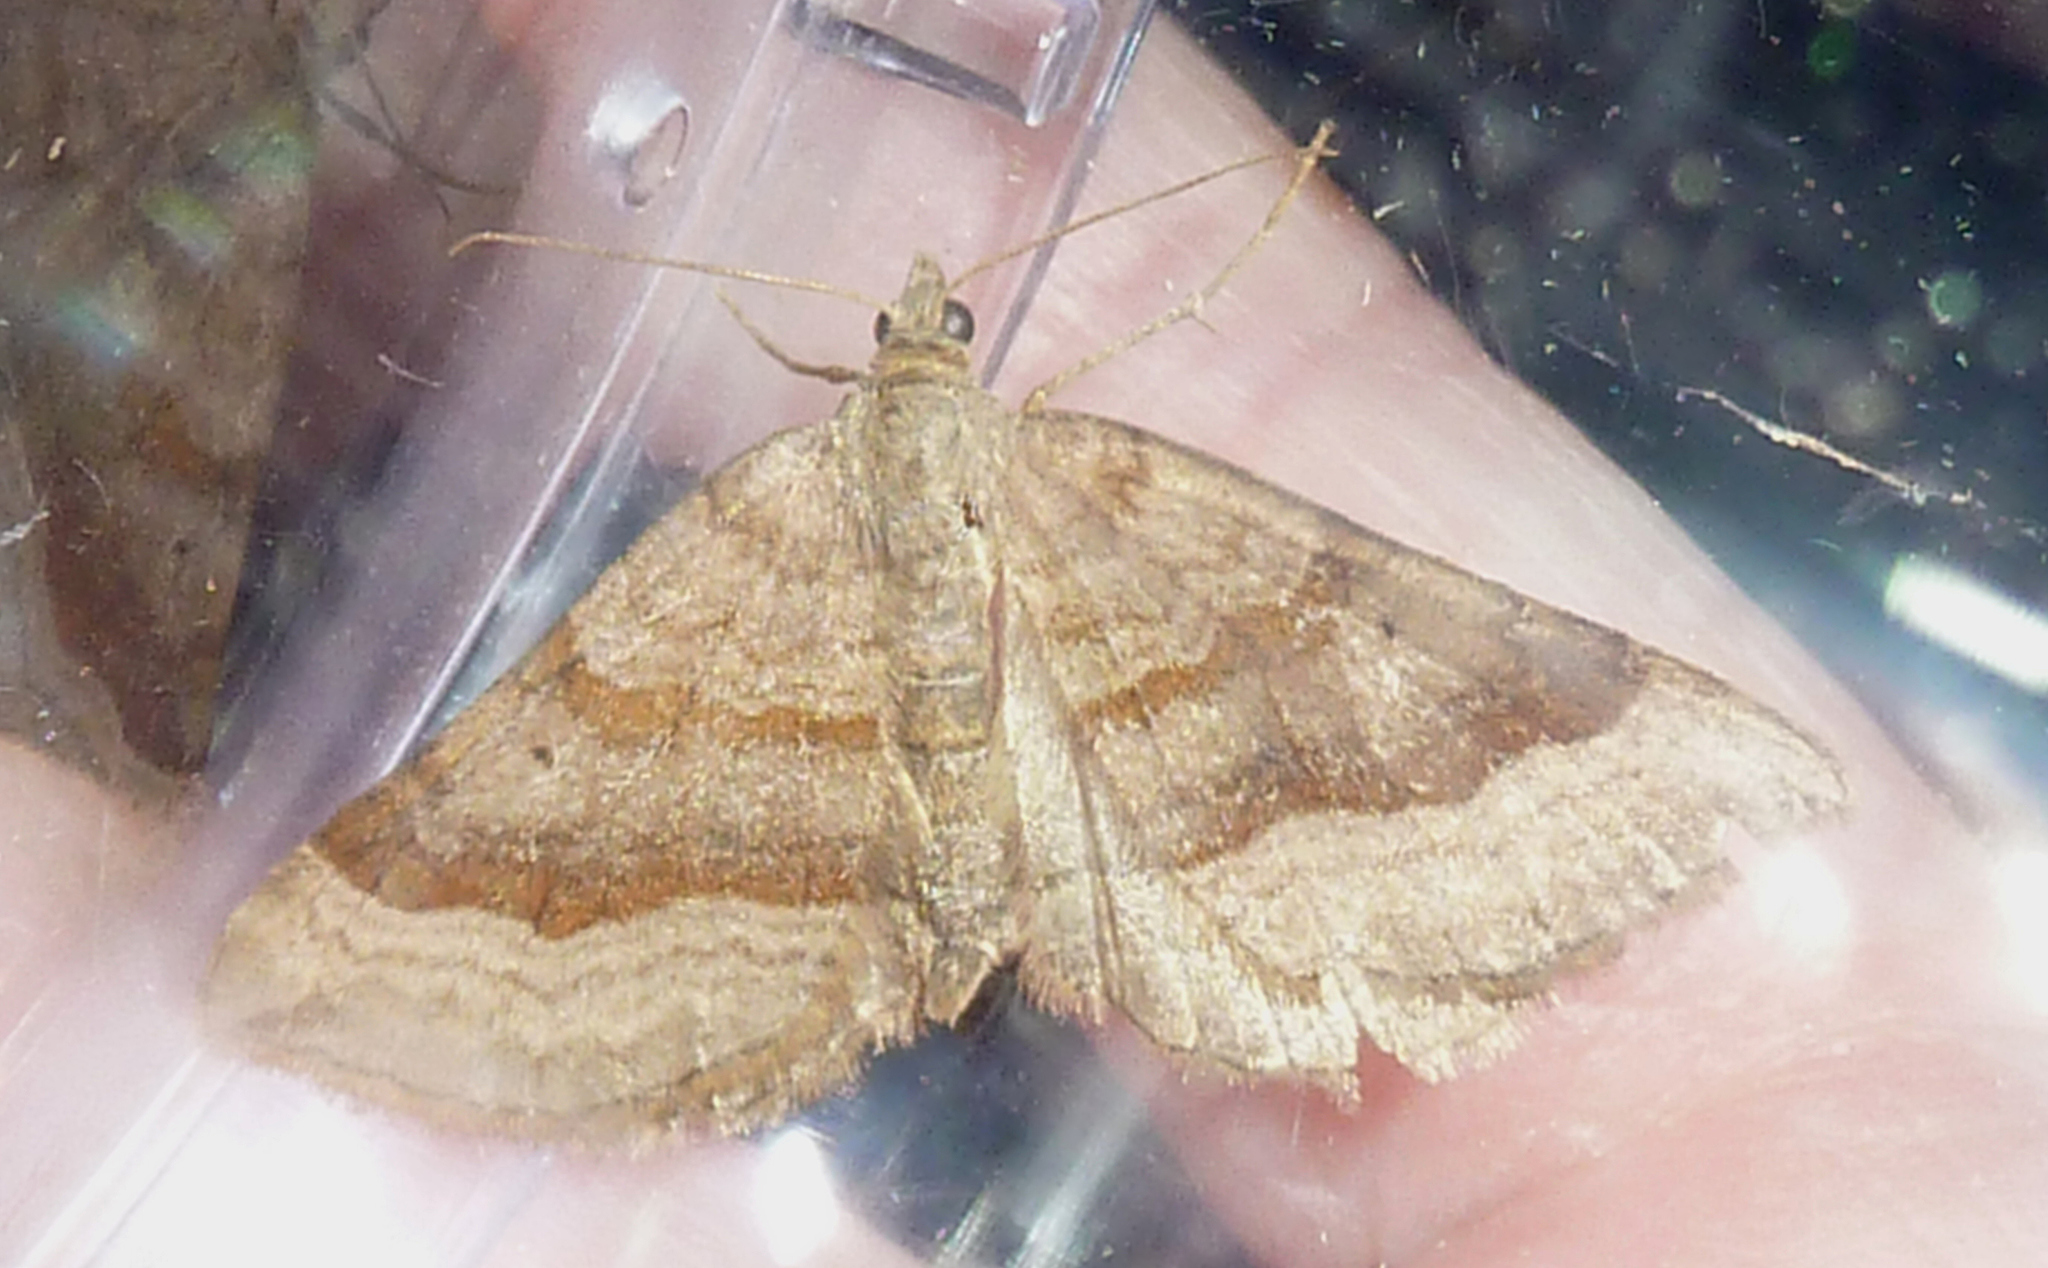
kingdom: Animalia
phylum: Arthropoda
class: Insecta
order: Lepidoptera
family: Geometridae
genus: Scotopteryx
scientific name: Scotopteryx chenopodiata
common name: Shaded broad-bar
